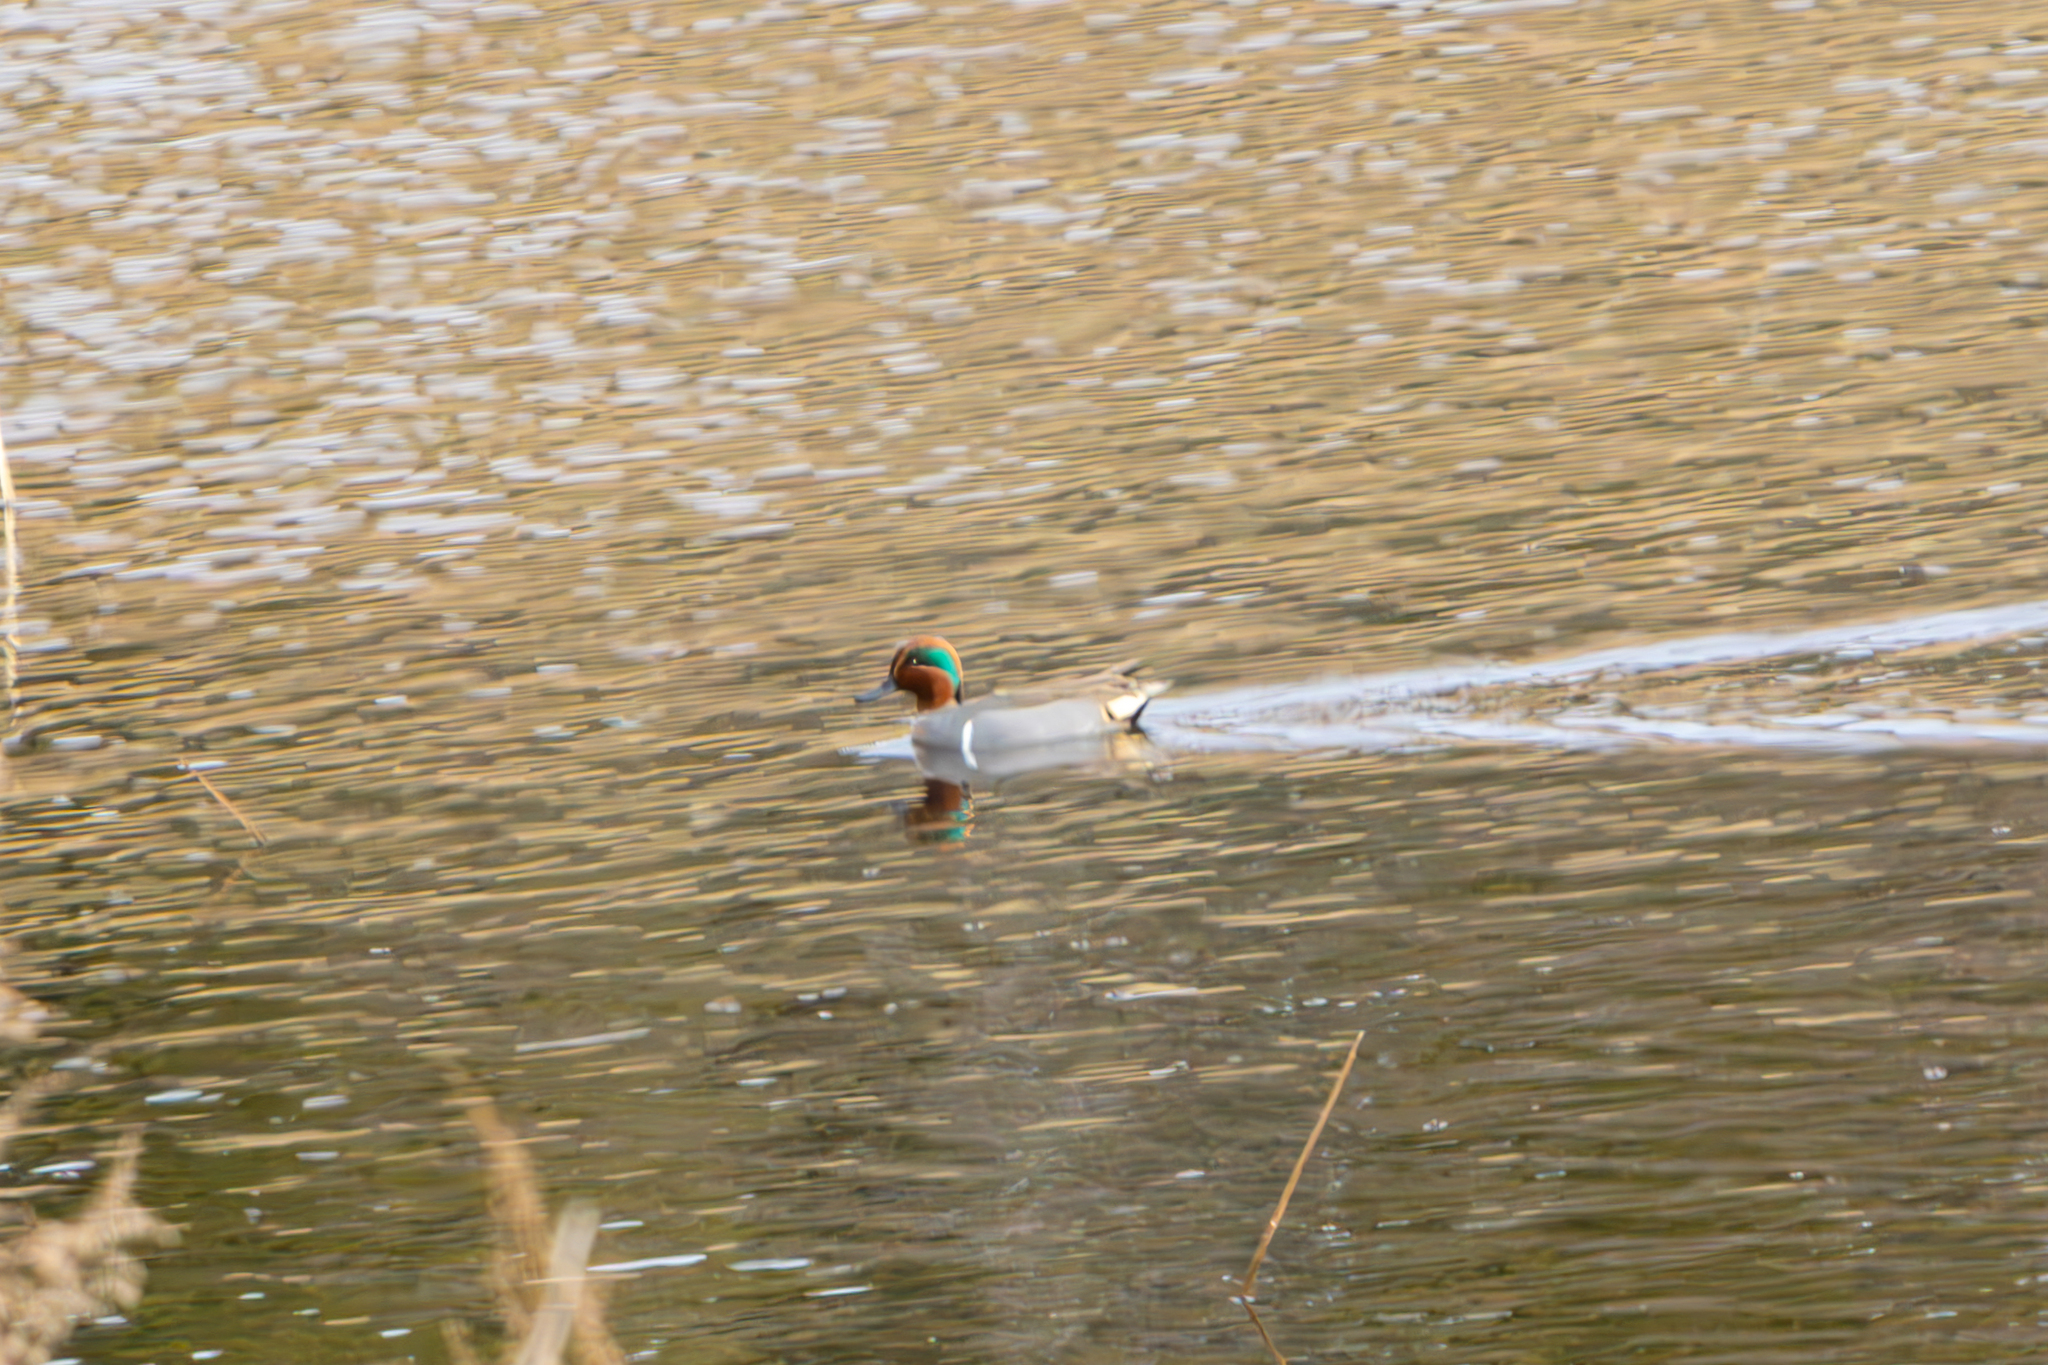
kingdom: Animalia
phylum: Chordata
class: Aves
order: Anseriformes
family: Anatidae
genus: Anas
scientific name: Anas carolinensis
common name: Green-winged teal
